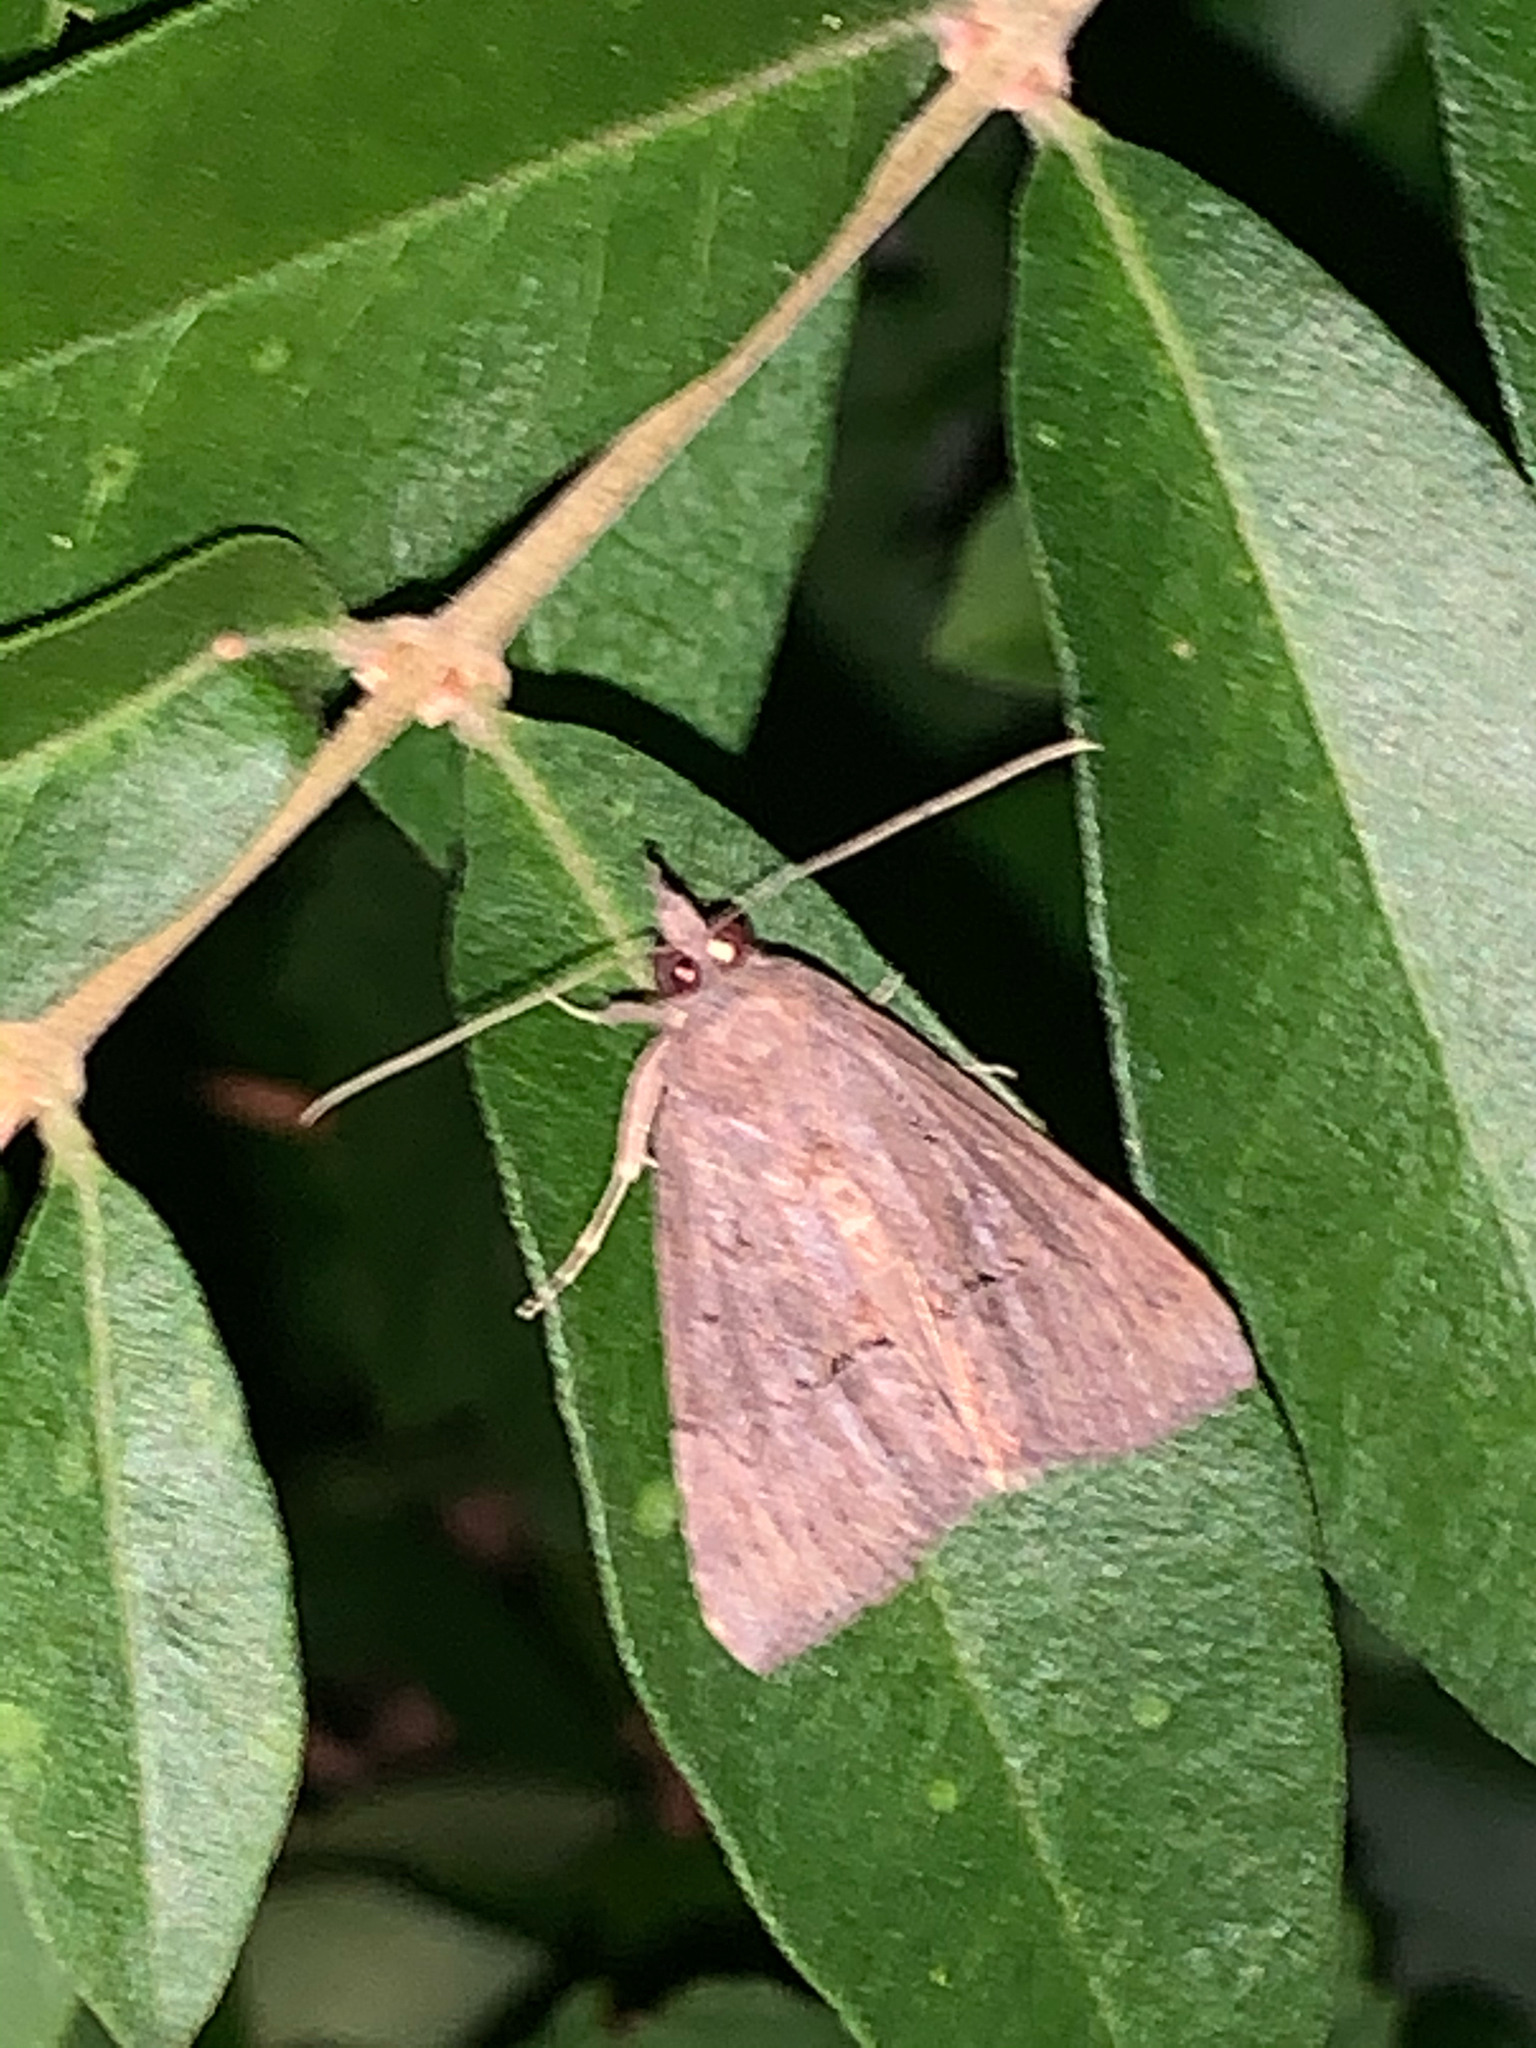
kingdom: Animalia
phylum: Arthropoda
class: Insecta
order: Lepidoptera
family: Erebidae
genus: Hypena
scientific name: Hypena scabra
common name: Green cloverworm
